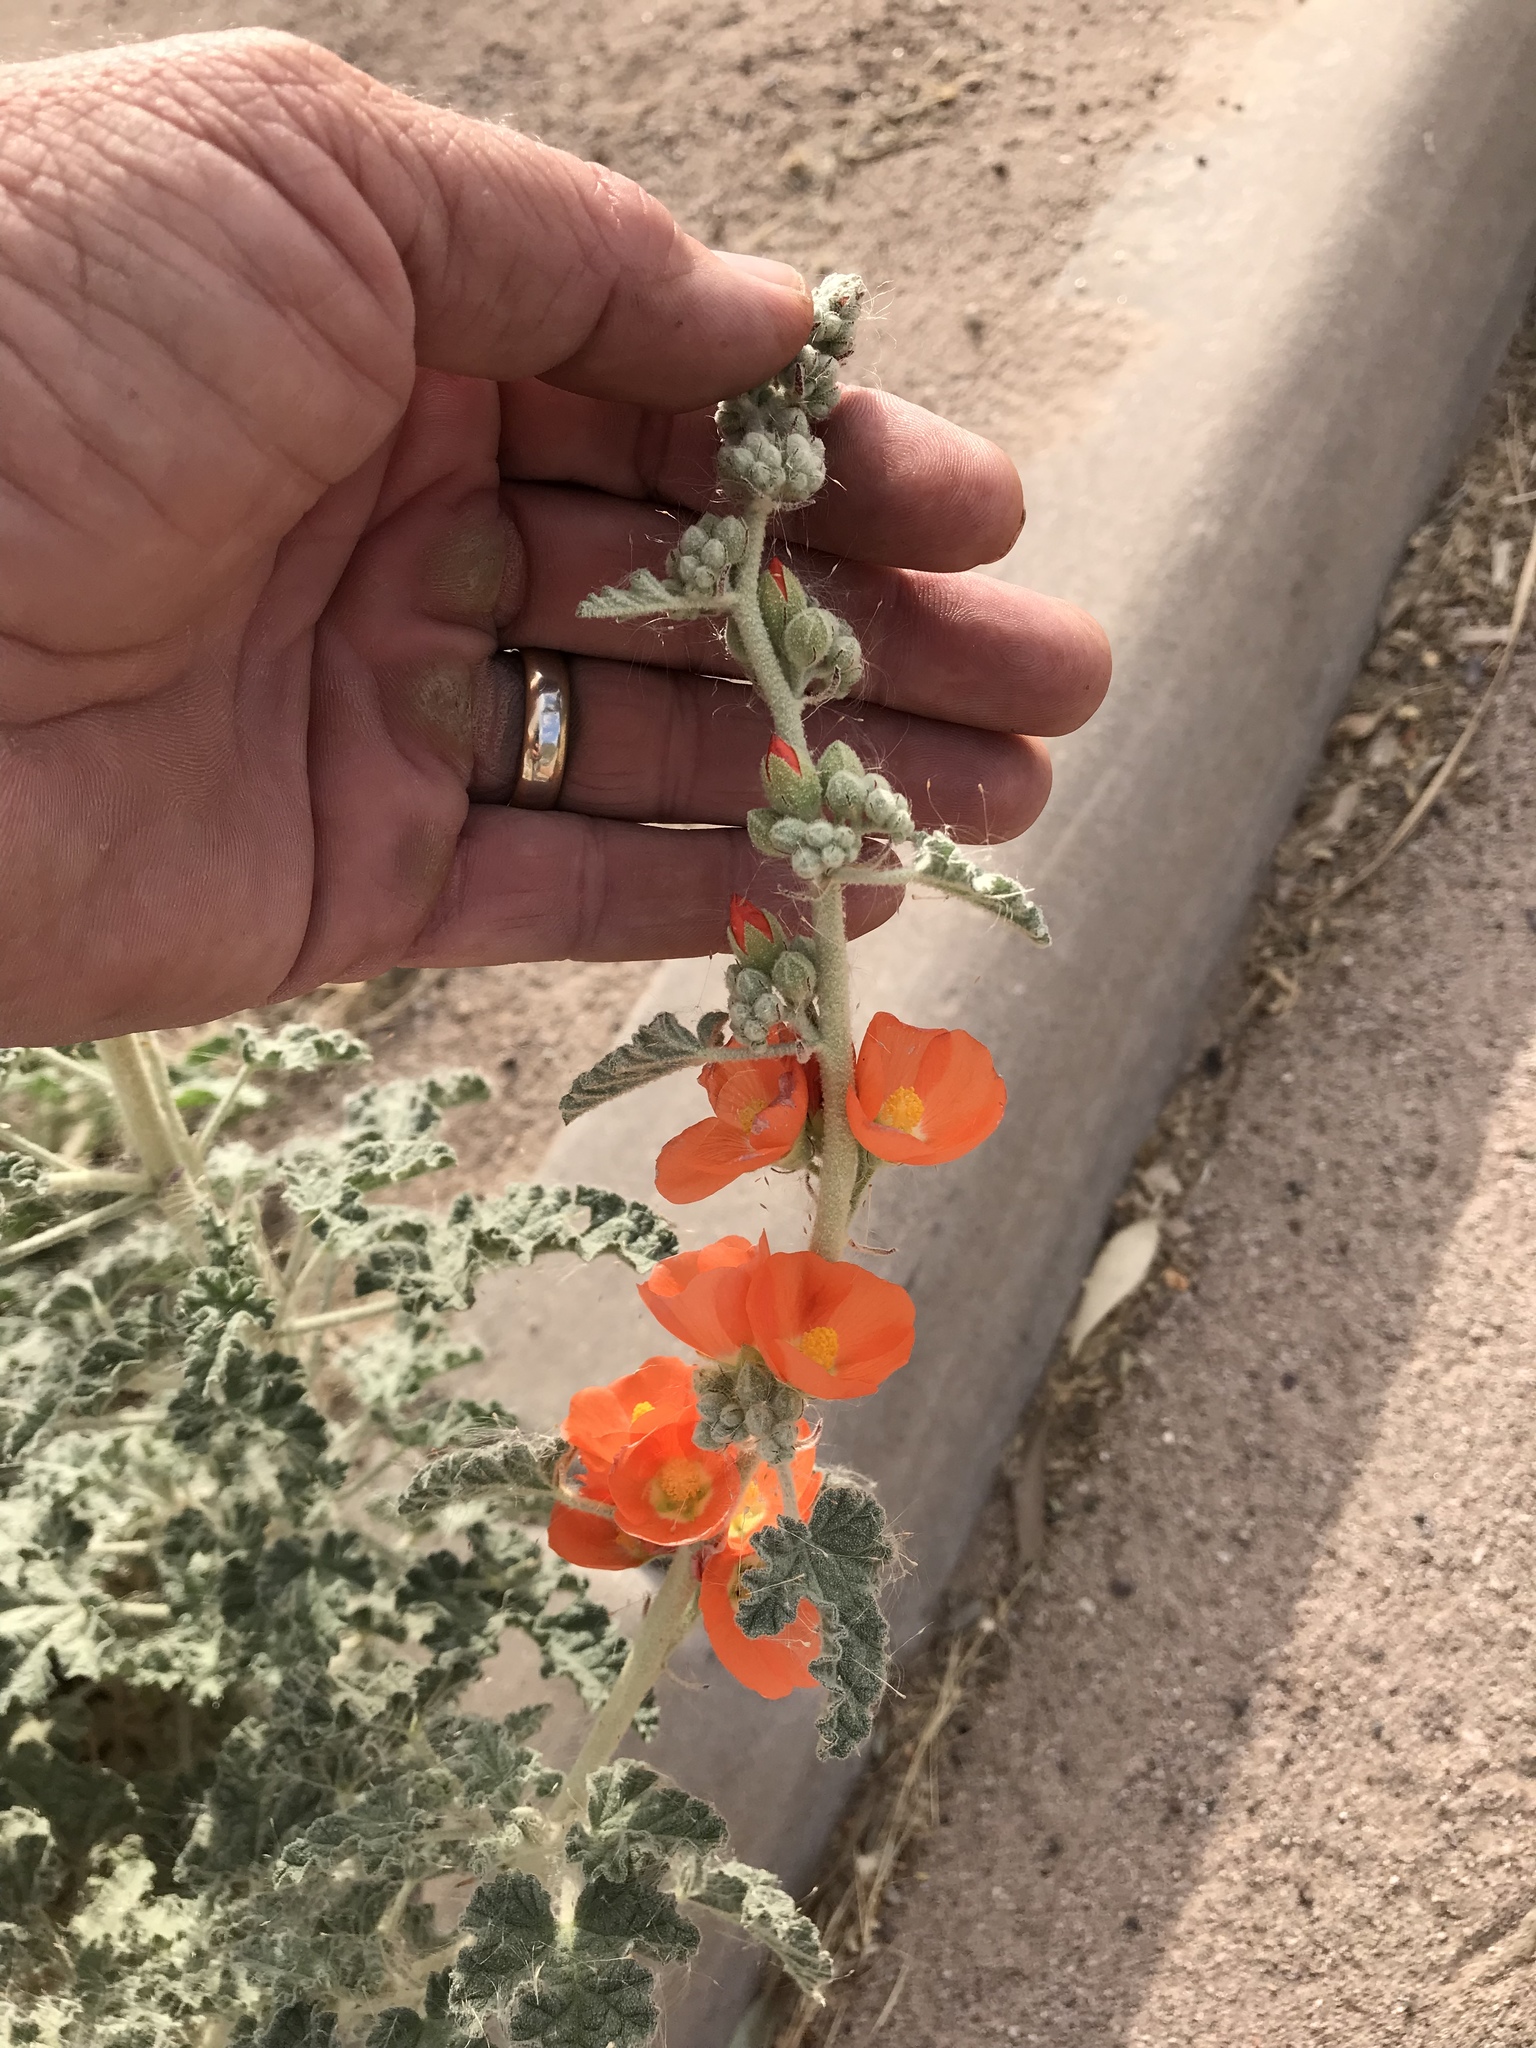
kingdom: Plantae
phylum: Tracheophyta
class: Magnoliopsida
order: Malvales
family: Malvaceae
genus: Sphaeralcea
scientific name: Sphaeralcea ambigua
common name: Apricot globe-mallow
